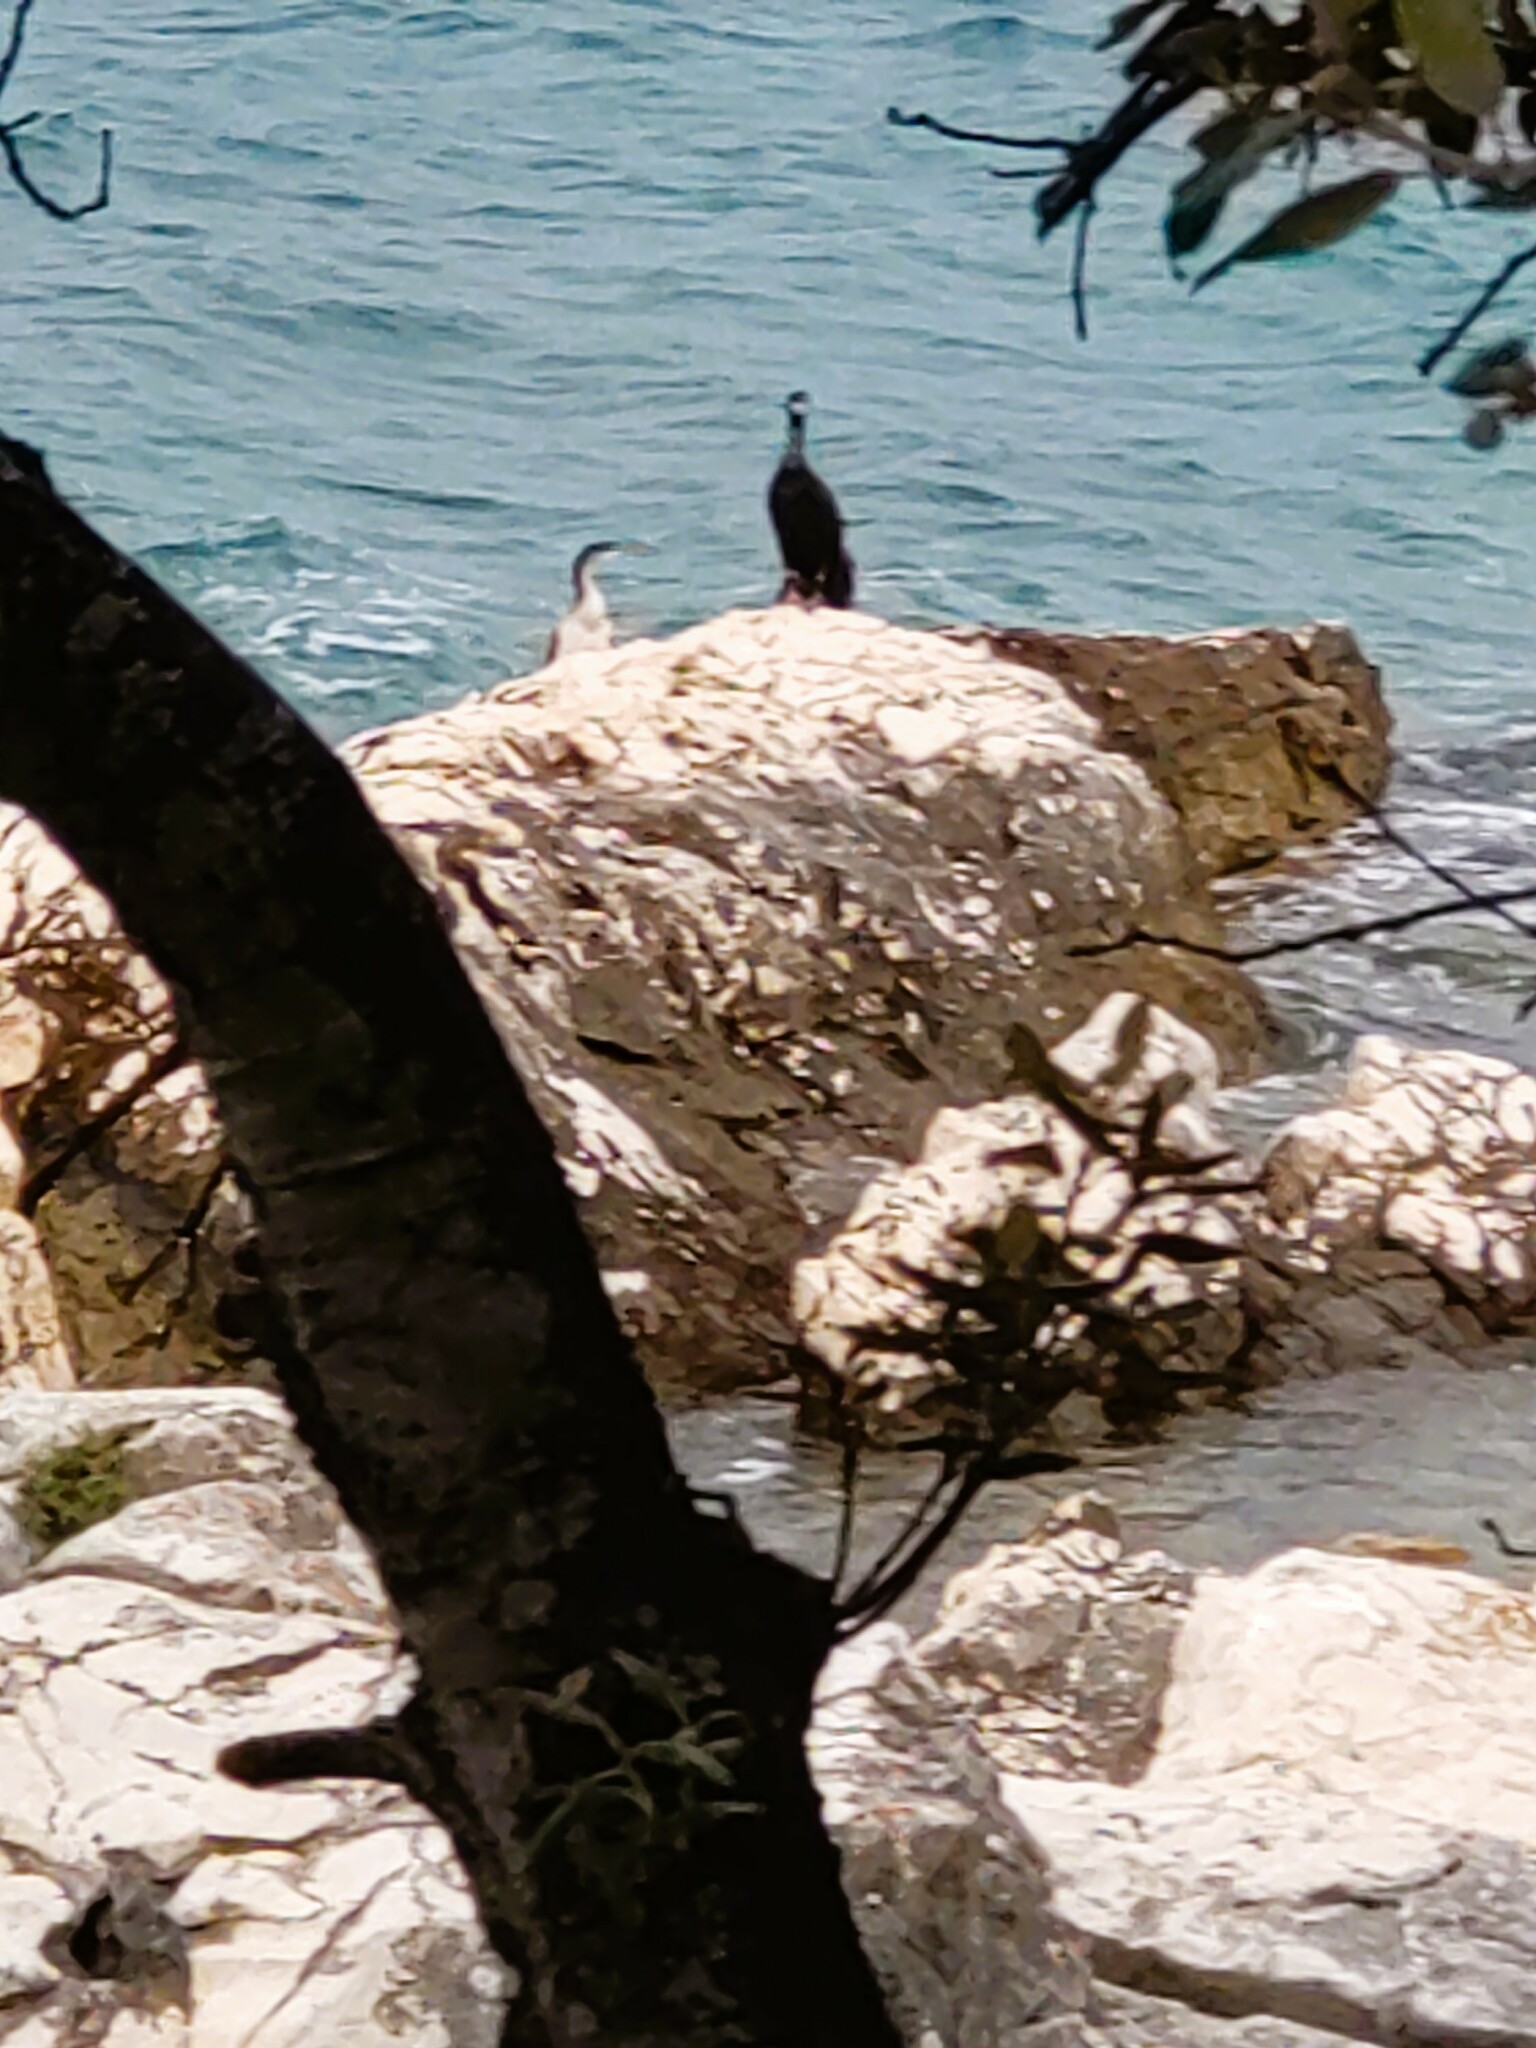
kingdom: Animalia
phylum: Chordata
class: Aves
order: Suliformes
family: Phalacrocoracidae
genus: Phalacrocorax
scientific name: Phalacrocorax aristotelis
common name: European shag
